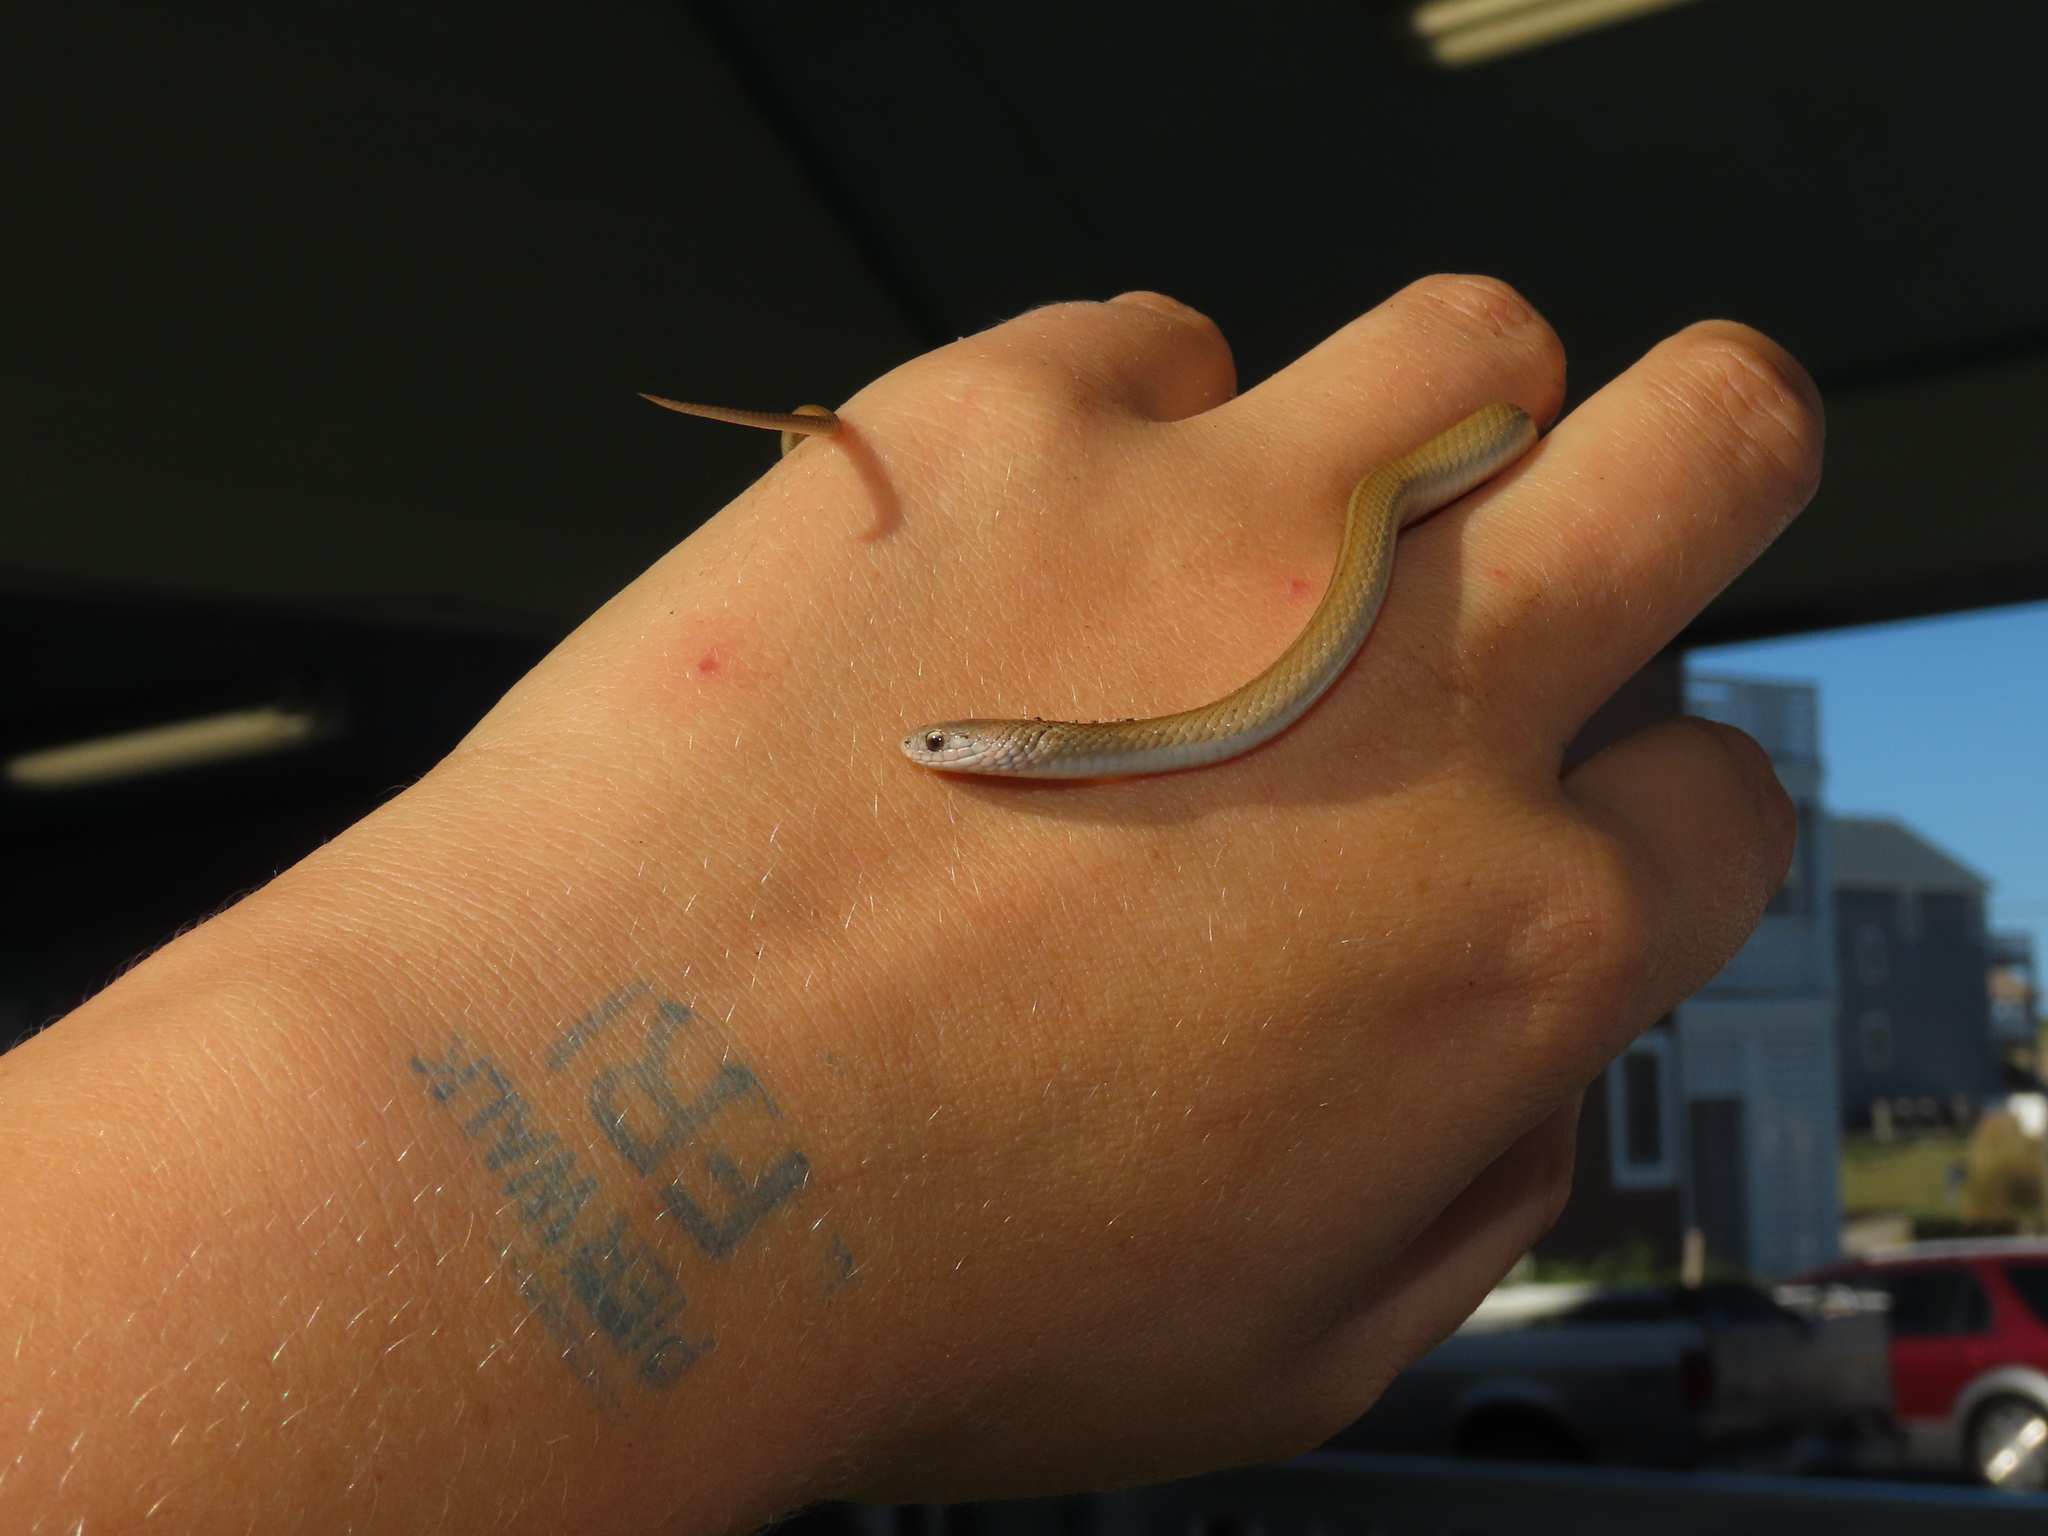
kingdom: Animalia
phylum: Chordata
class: Squamata
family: Colubridae
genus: Storeria
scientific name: Storeria dekayi
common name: (dekay’s) brown snake
